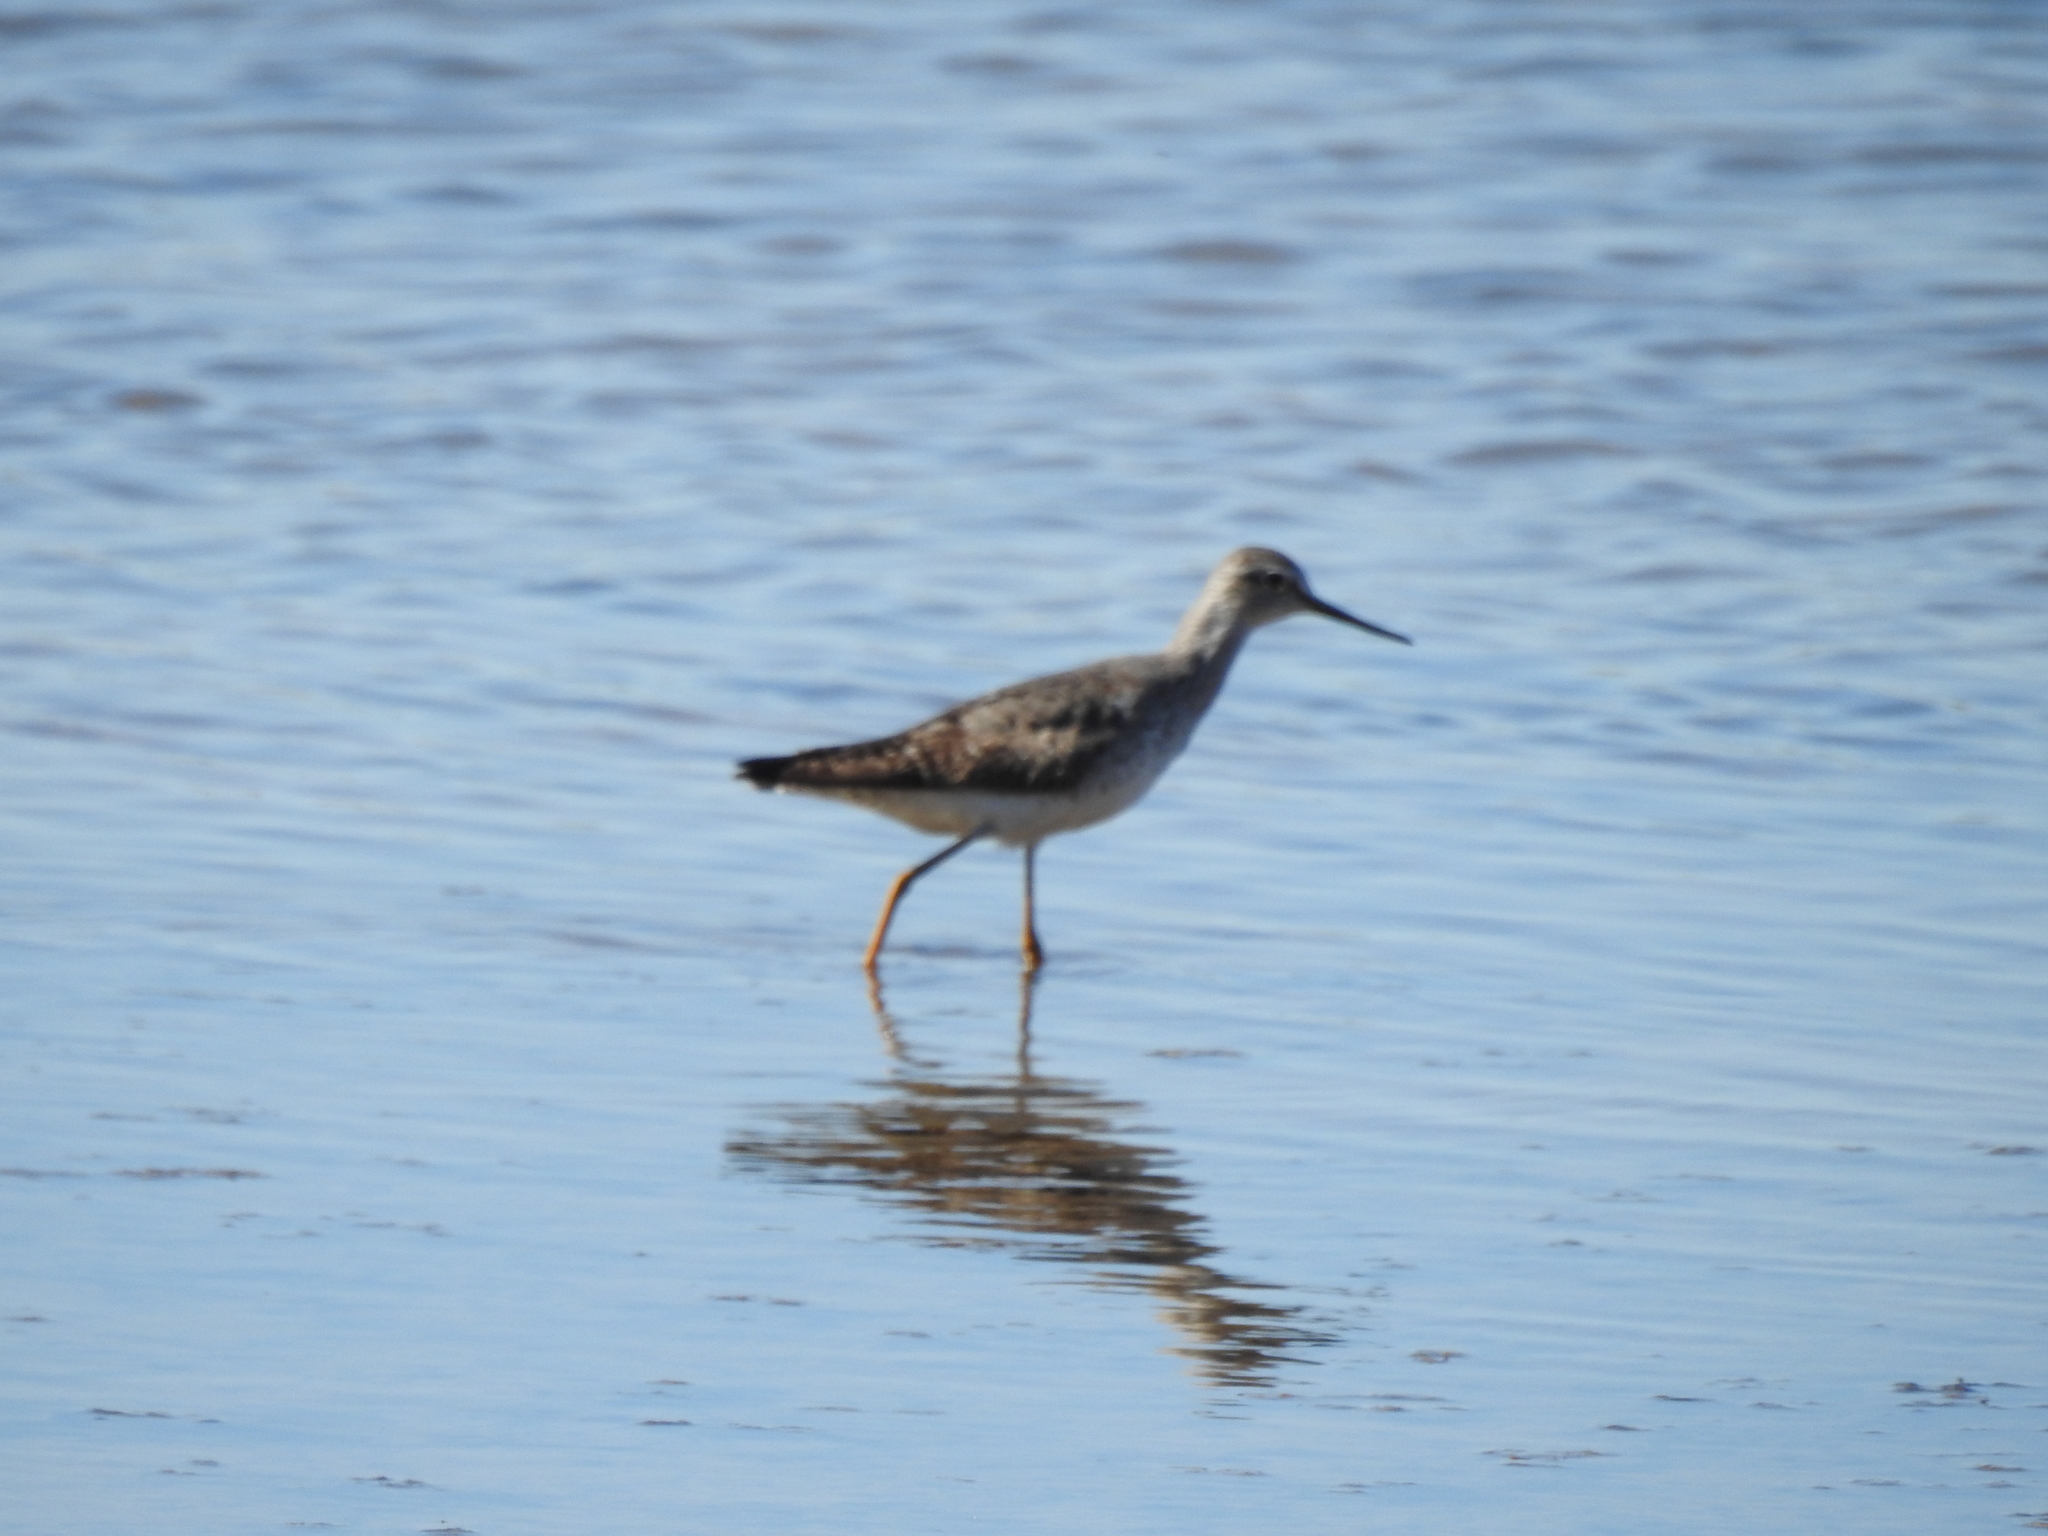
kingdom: Animalia
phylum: Chordata
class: Aves
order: Charadriiformes
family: Scolopacidae
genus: Tringa
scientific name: Tringa melanoleuca
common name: Greater yellowlegs
